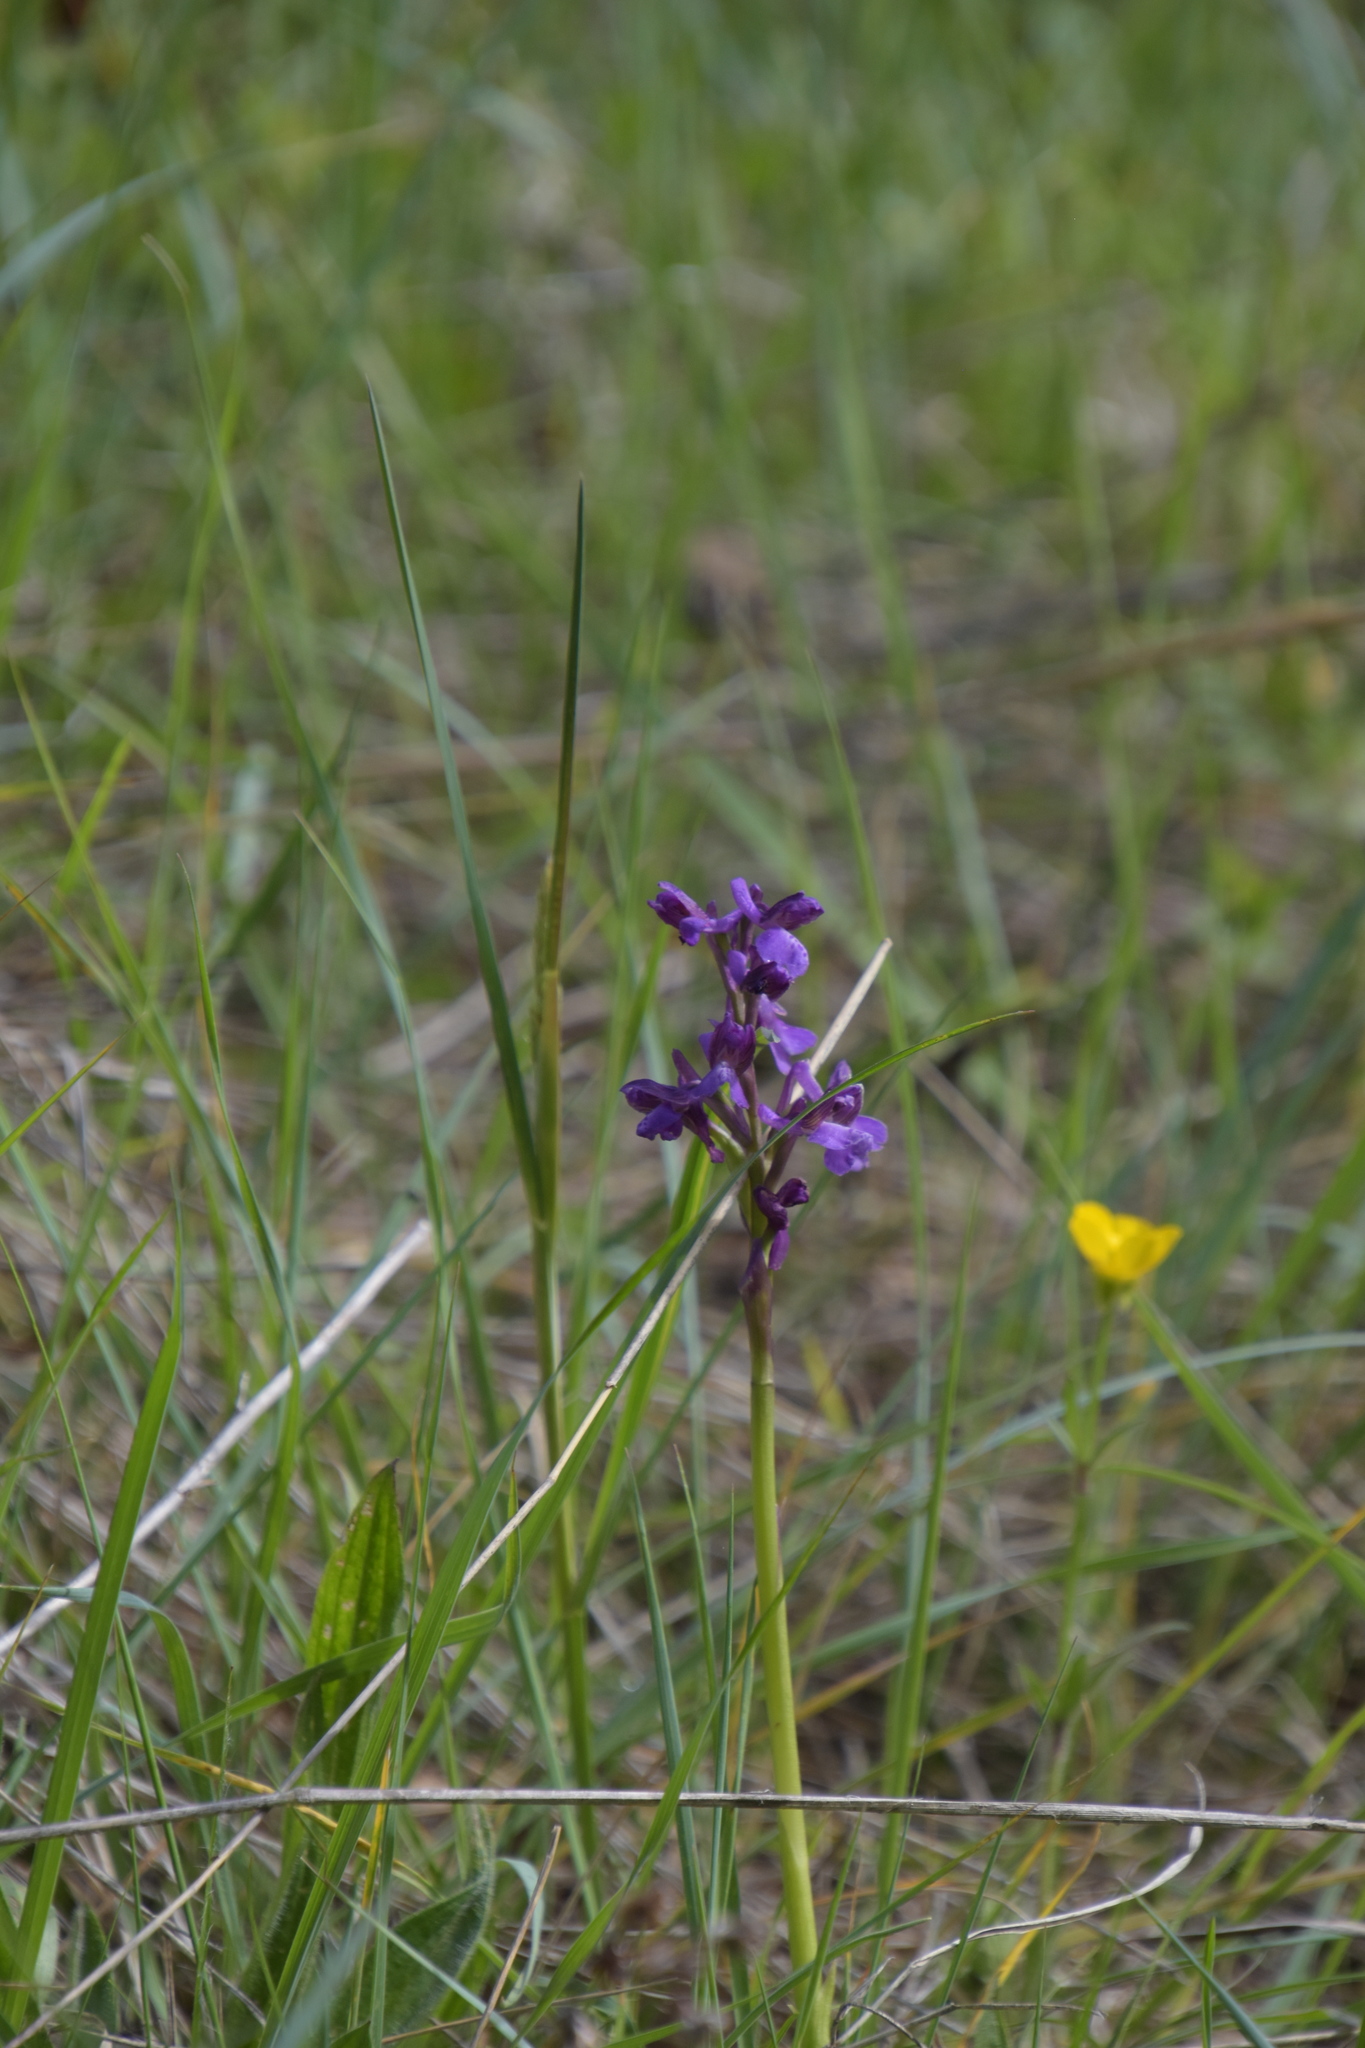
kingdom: Plantae
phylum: Tracheophyta
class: Liliopsida
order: Asparagales
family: Orchidaceae
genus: Anacamptis
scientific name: Anacamptis morio
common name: Green-winged orchid
